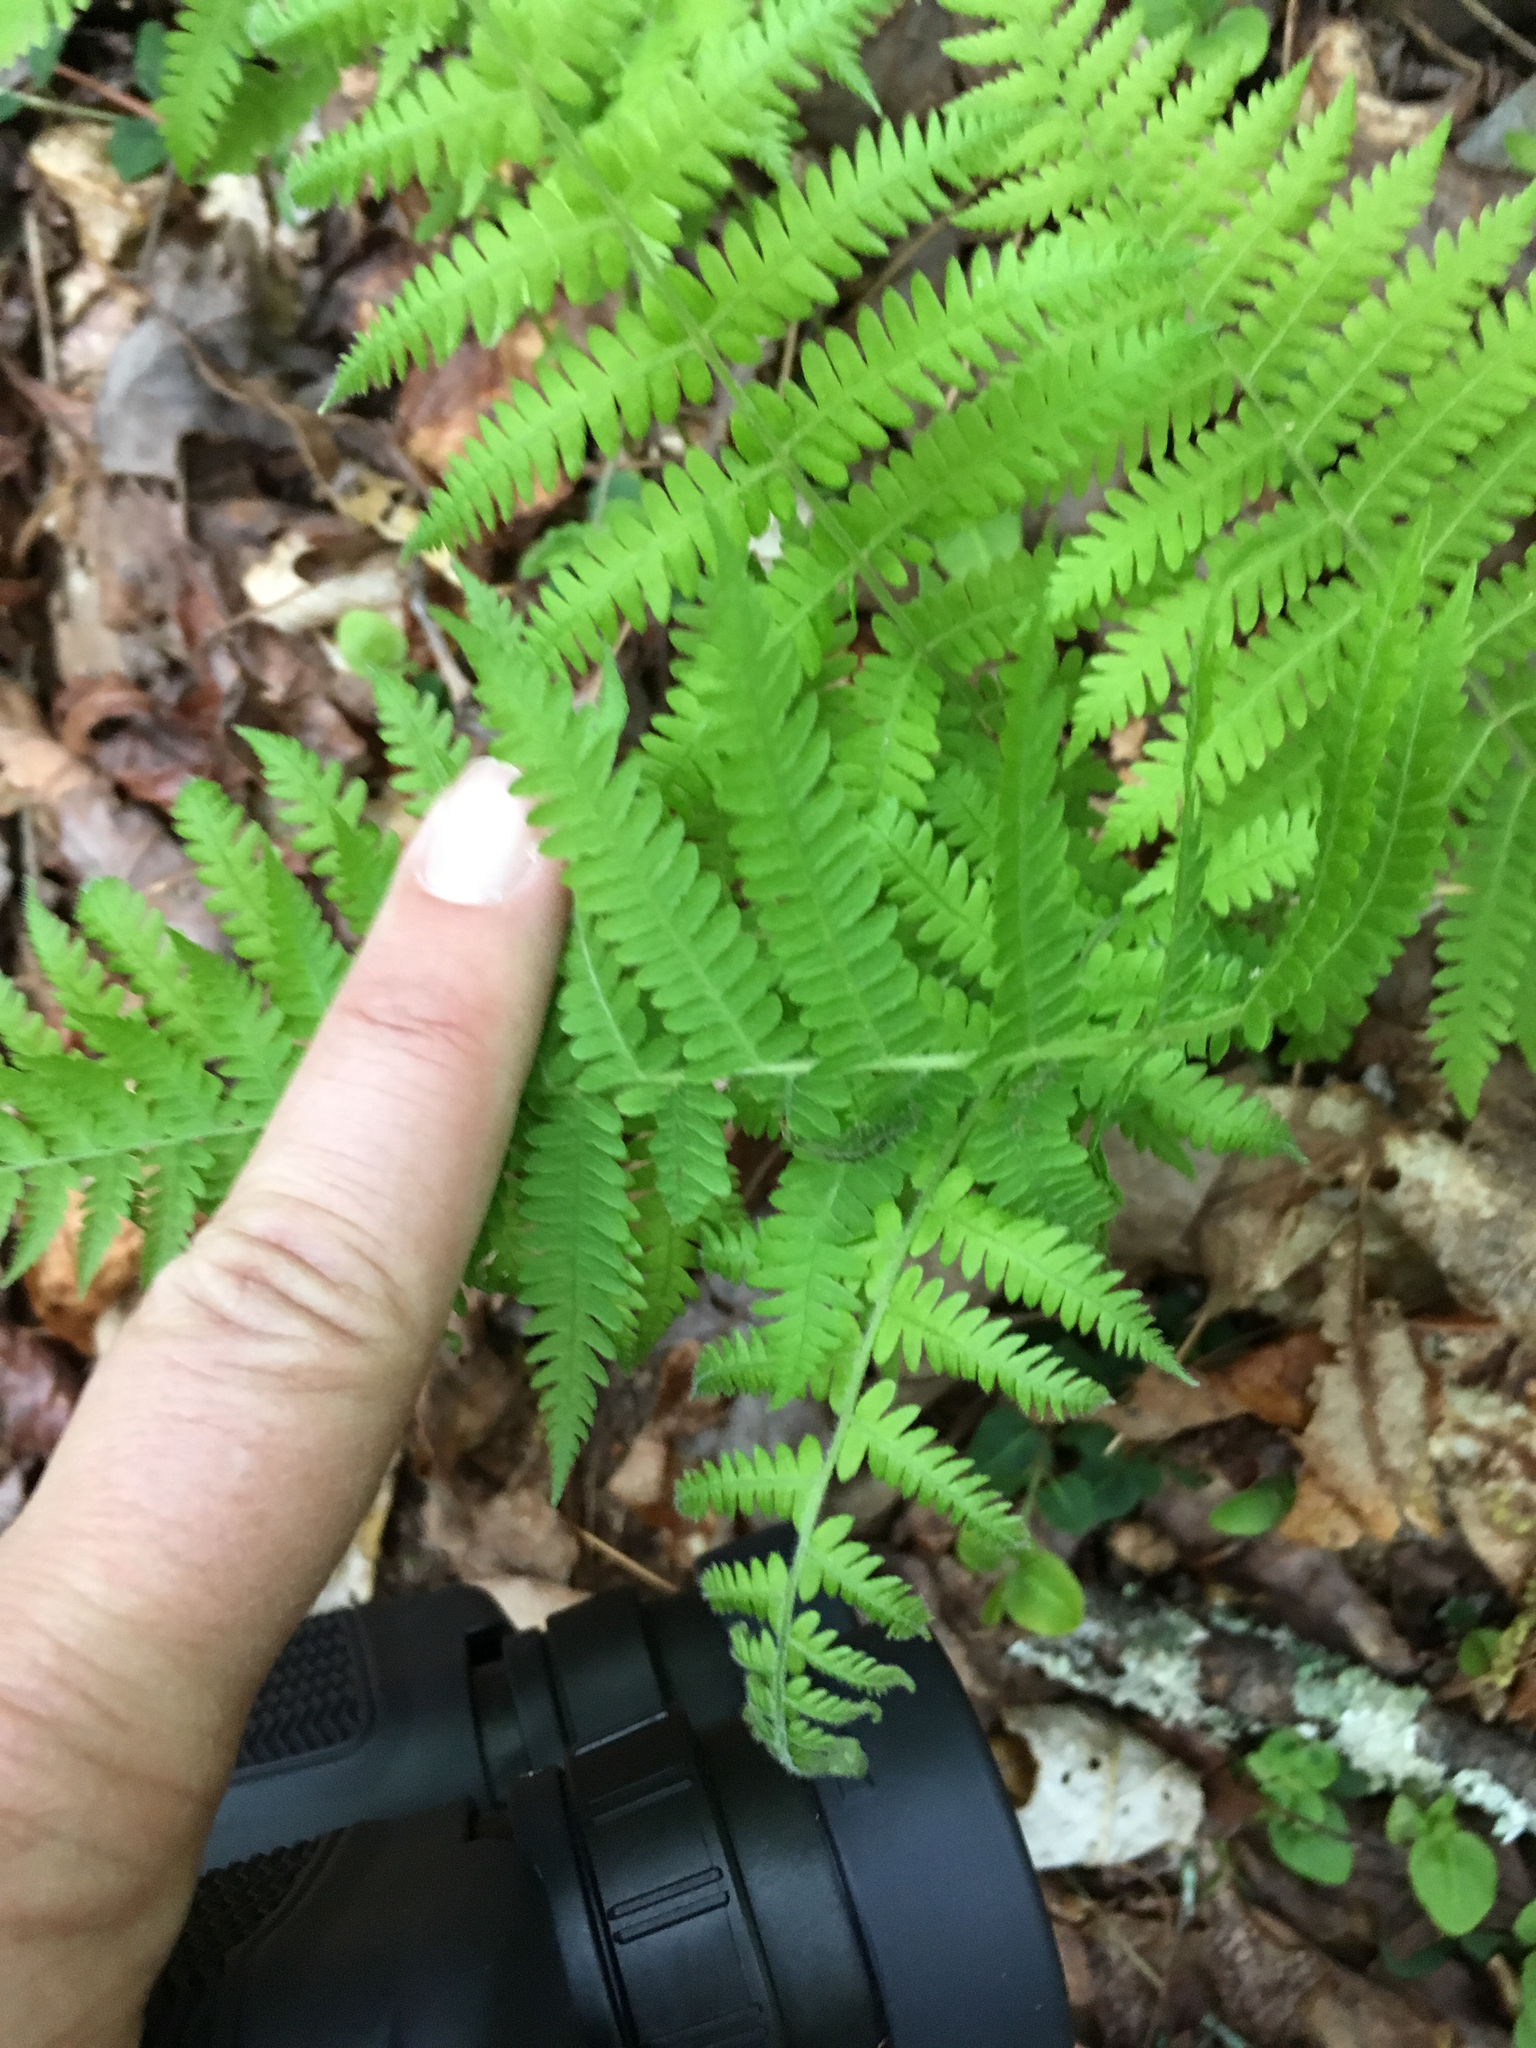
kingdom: Plantae
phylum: Tracheophyta
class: Polypodiopsida
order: Polypodiales
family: Thelypteridaceae
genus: Amauropelta
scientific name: Amauropelta noveboracensis
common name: New york fern
